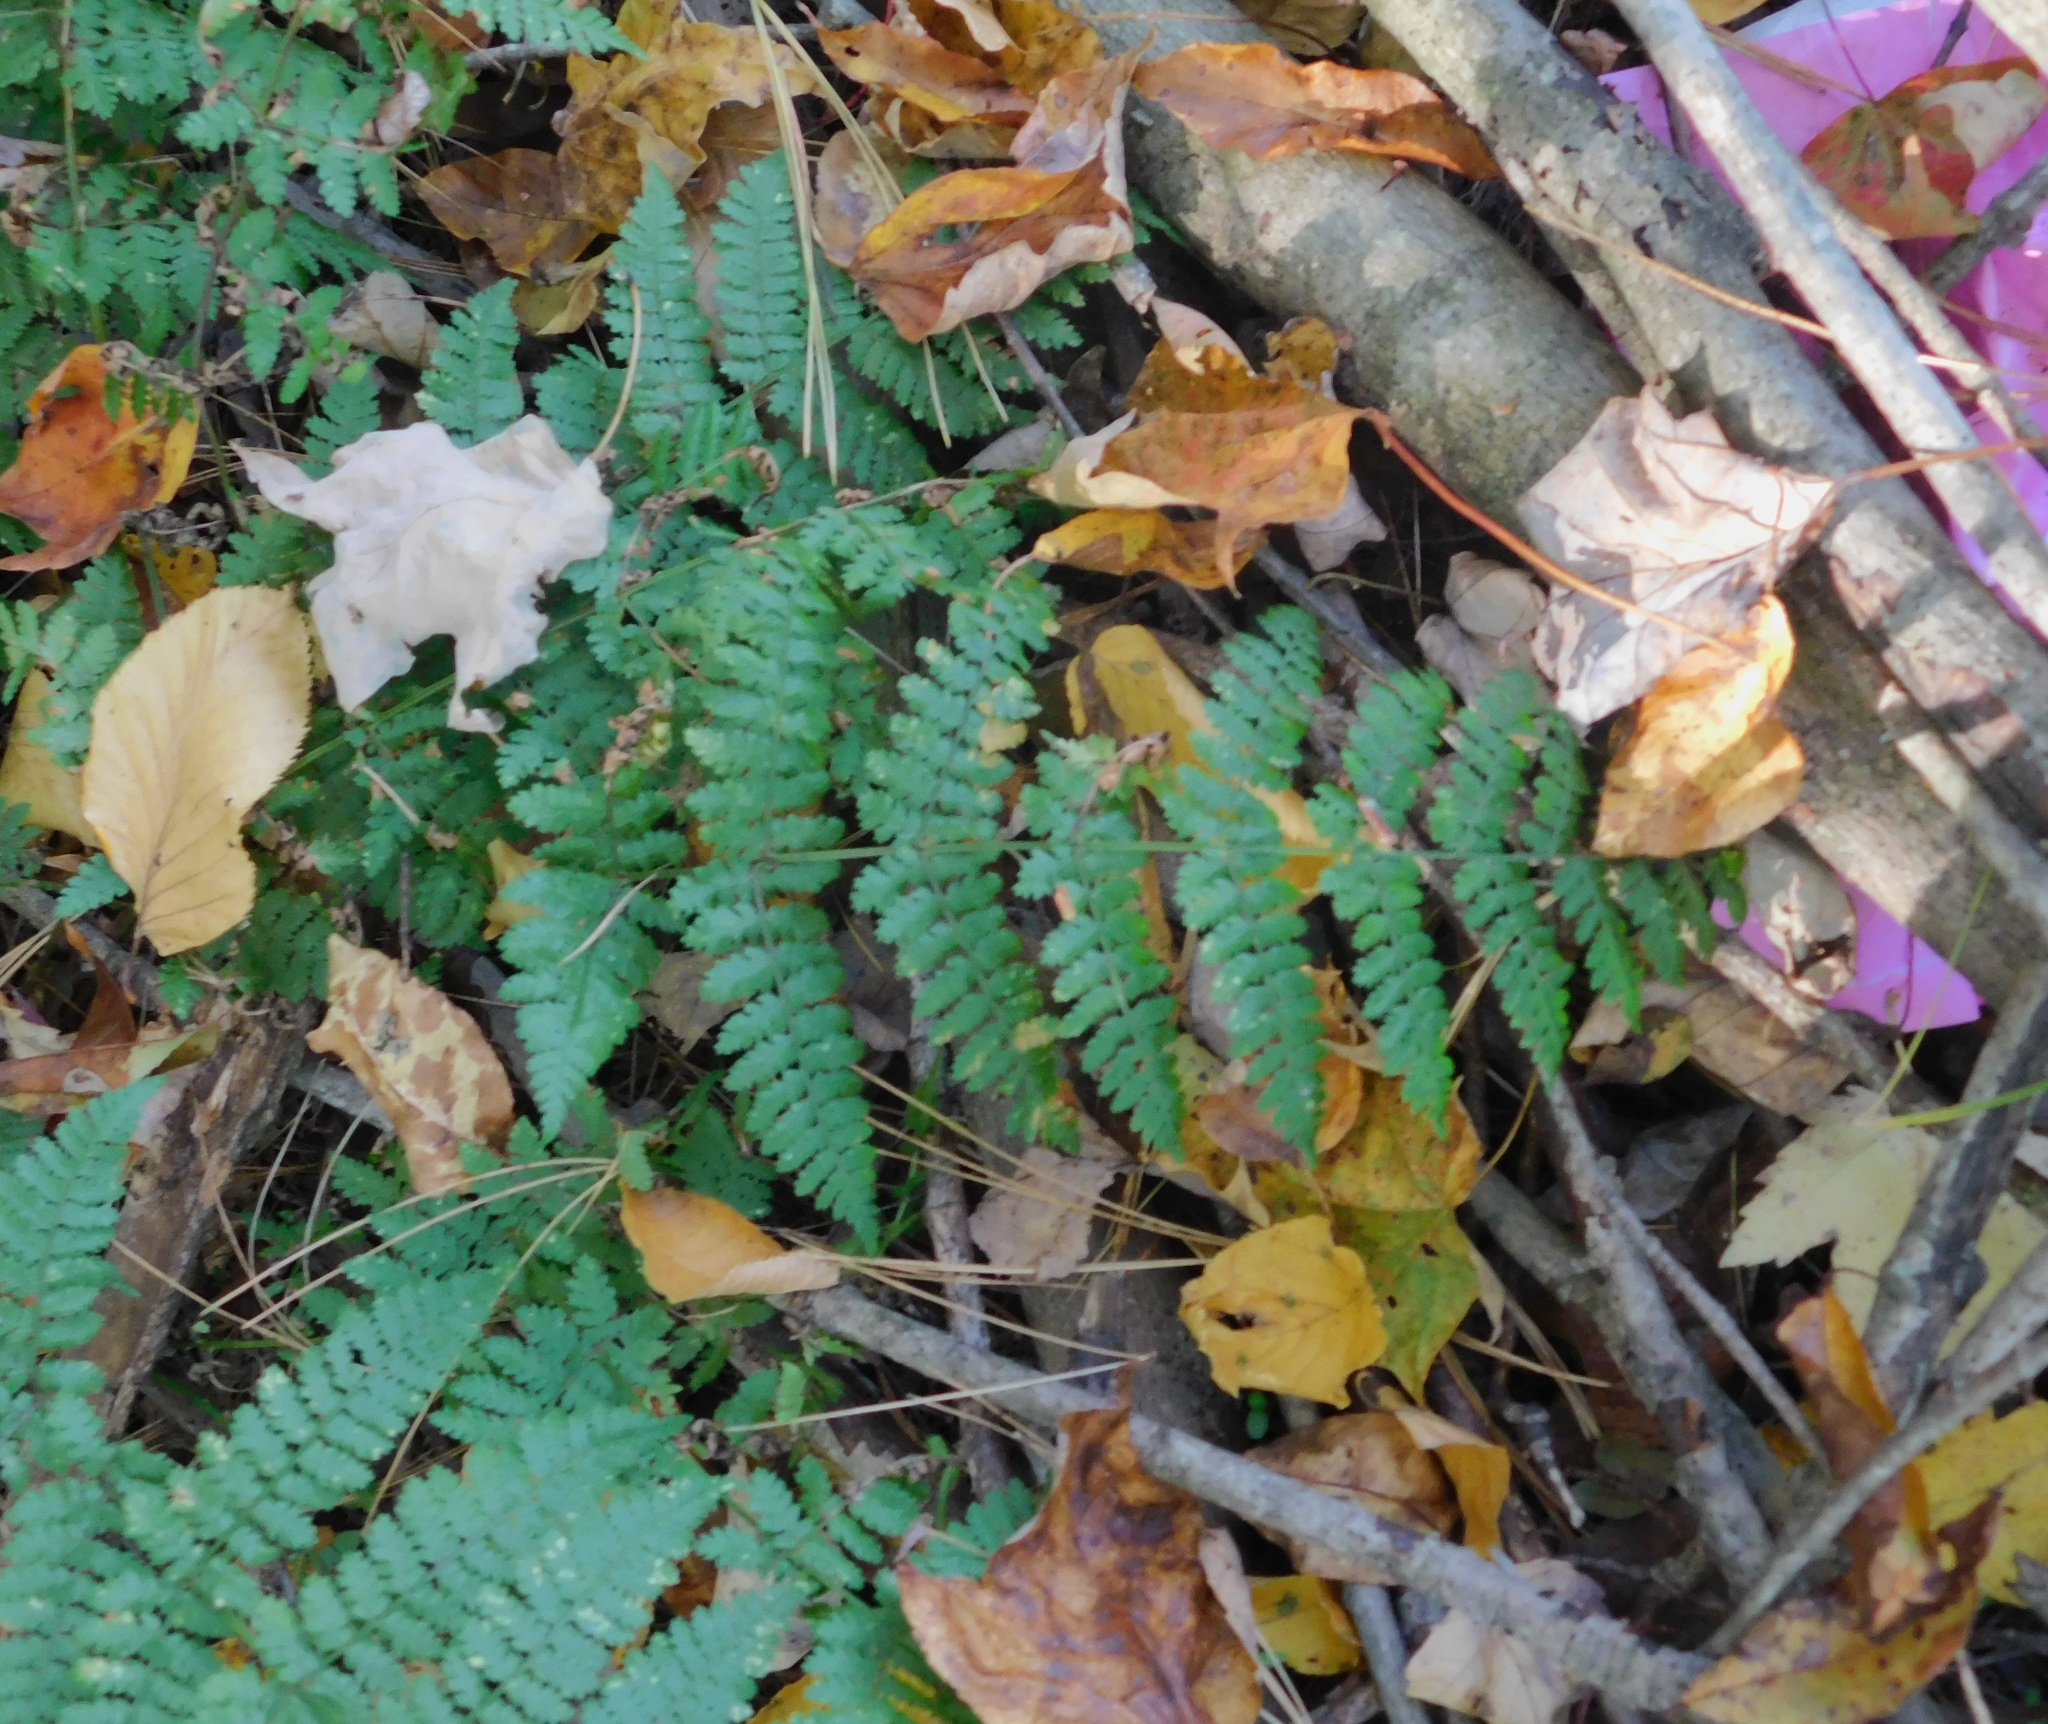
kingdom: Plantae
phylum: Tracheophyta
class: Polypodiopsida
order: Polypodiales
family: Dryopteridaceae
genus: Dryopteris
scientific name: Dryopteris intermedia
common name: Evergreen wood fern
